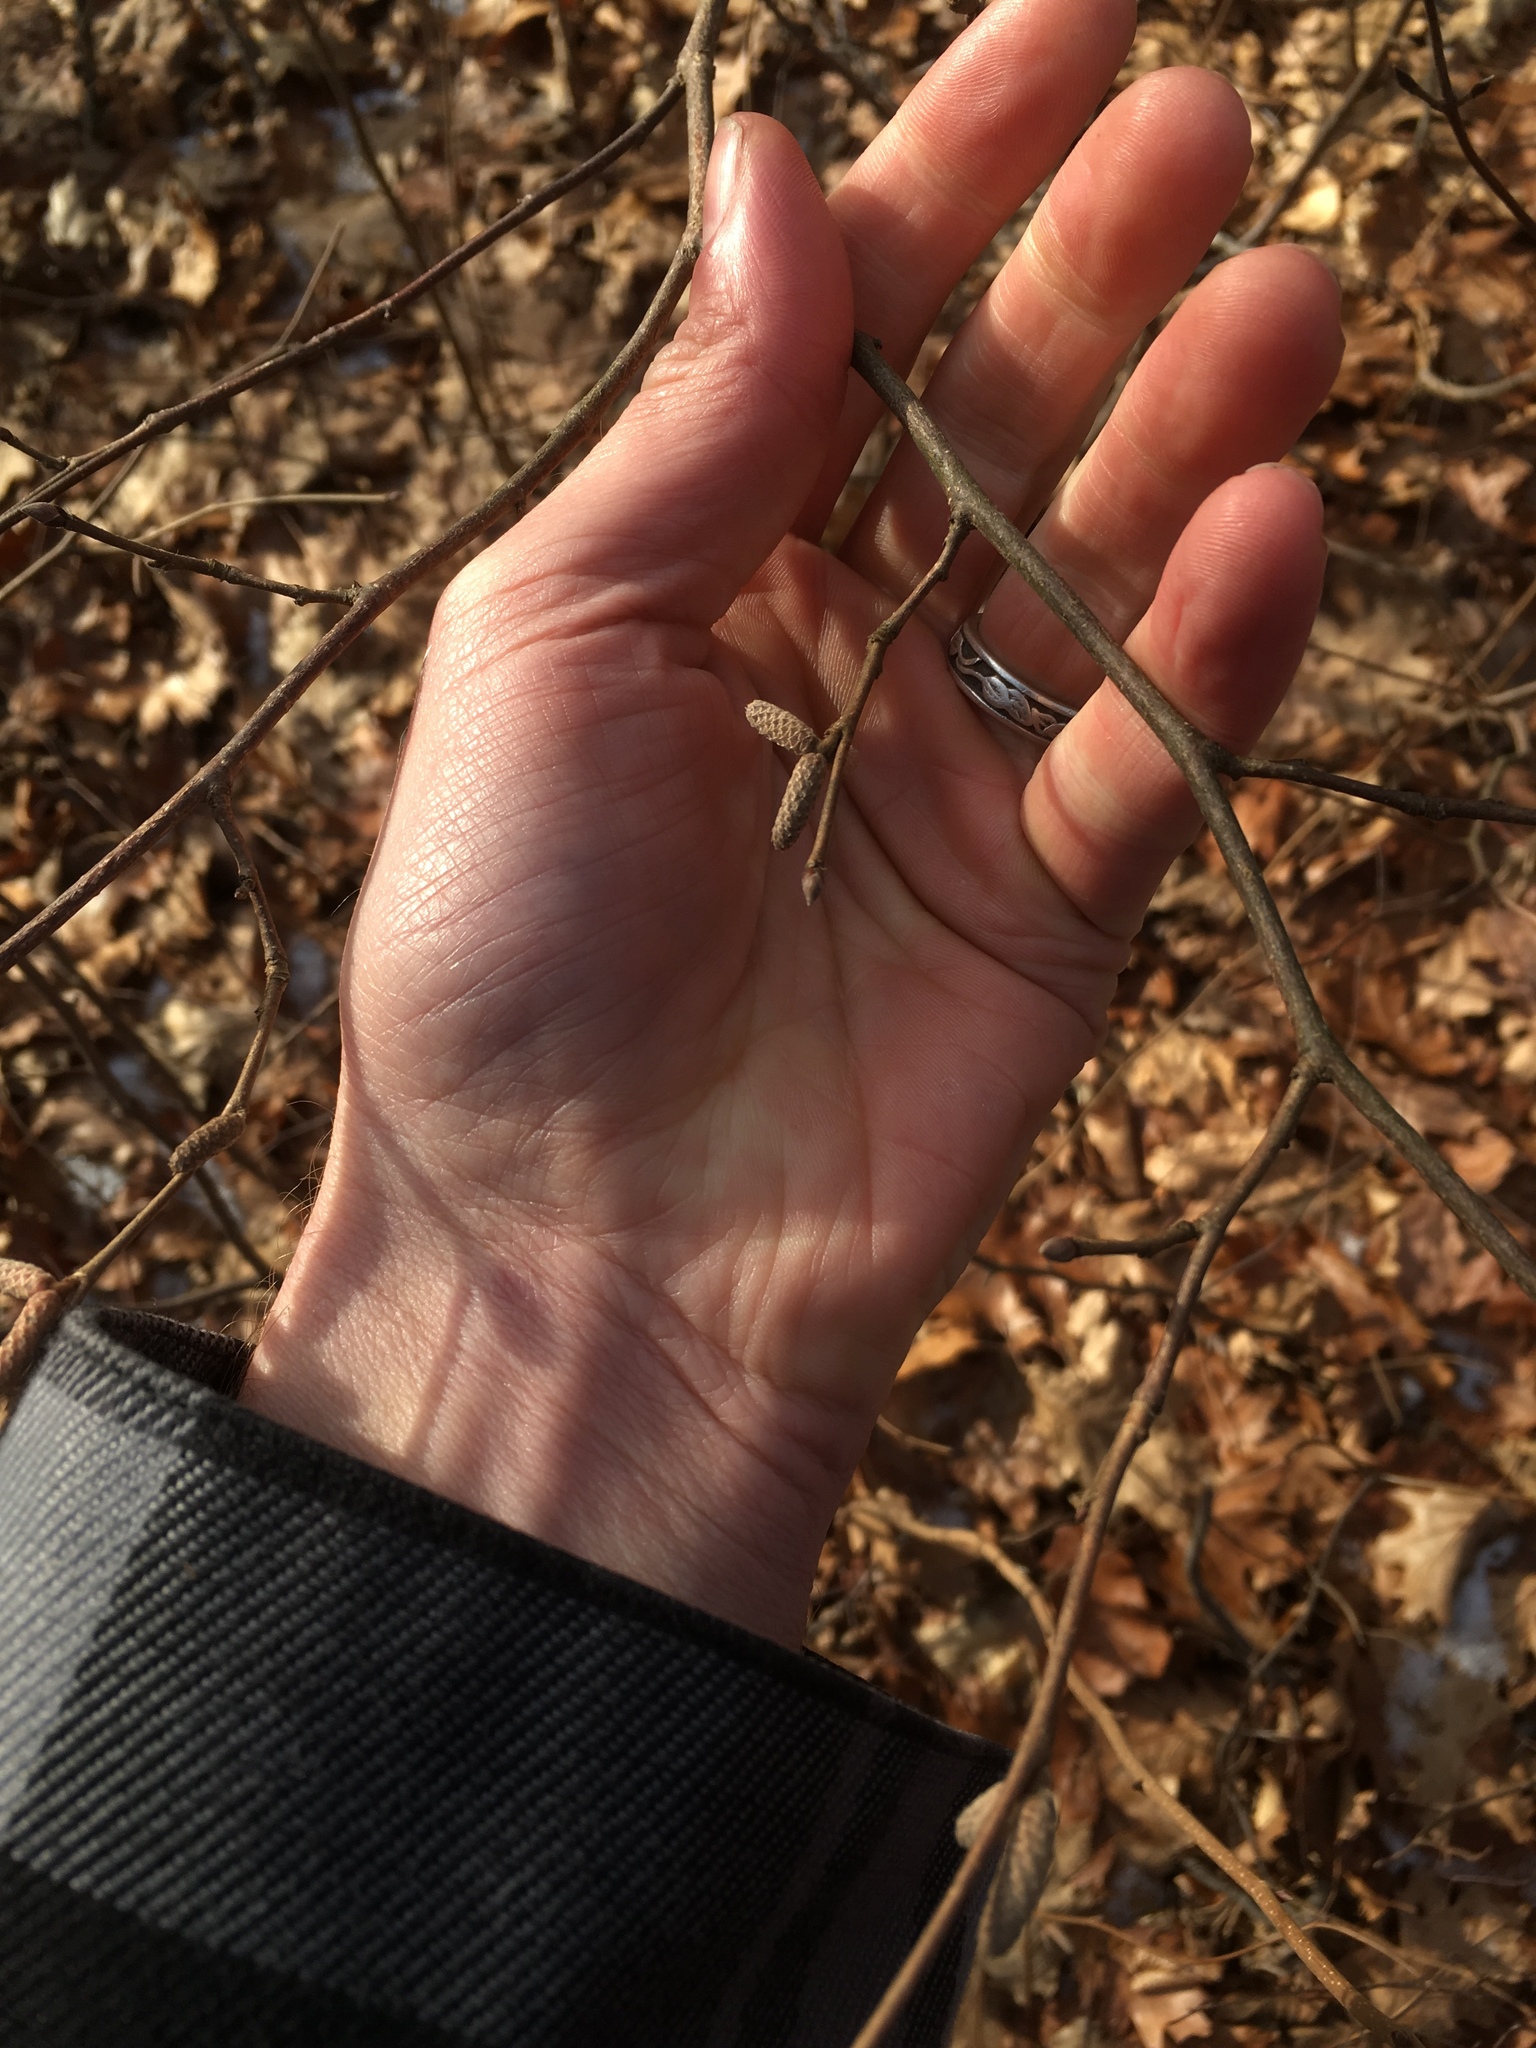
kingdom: Plantae
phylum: Tracheophyta
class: Magnoliopsida
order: Fagales
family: Betulaceae
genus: Corylus
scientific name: Corylus cornuta
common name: Beaked hazel
